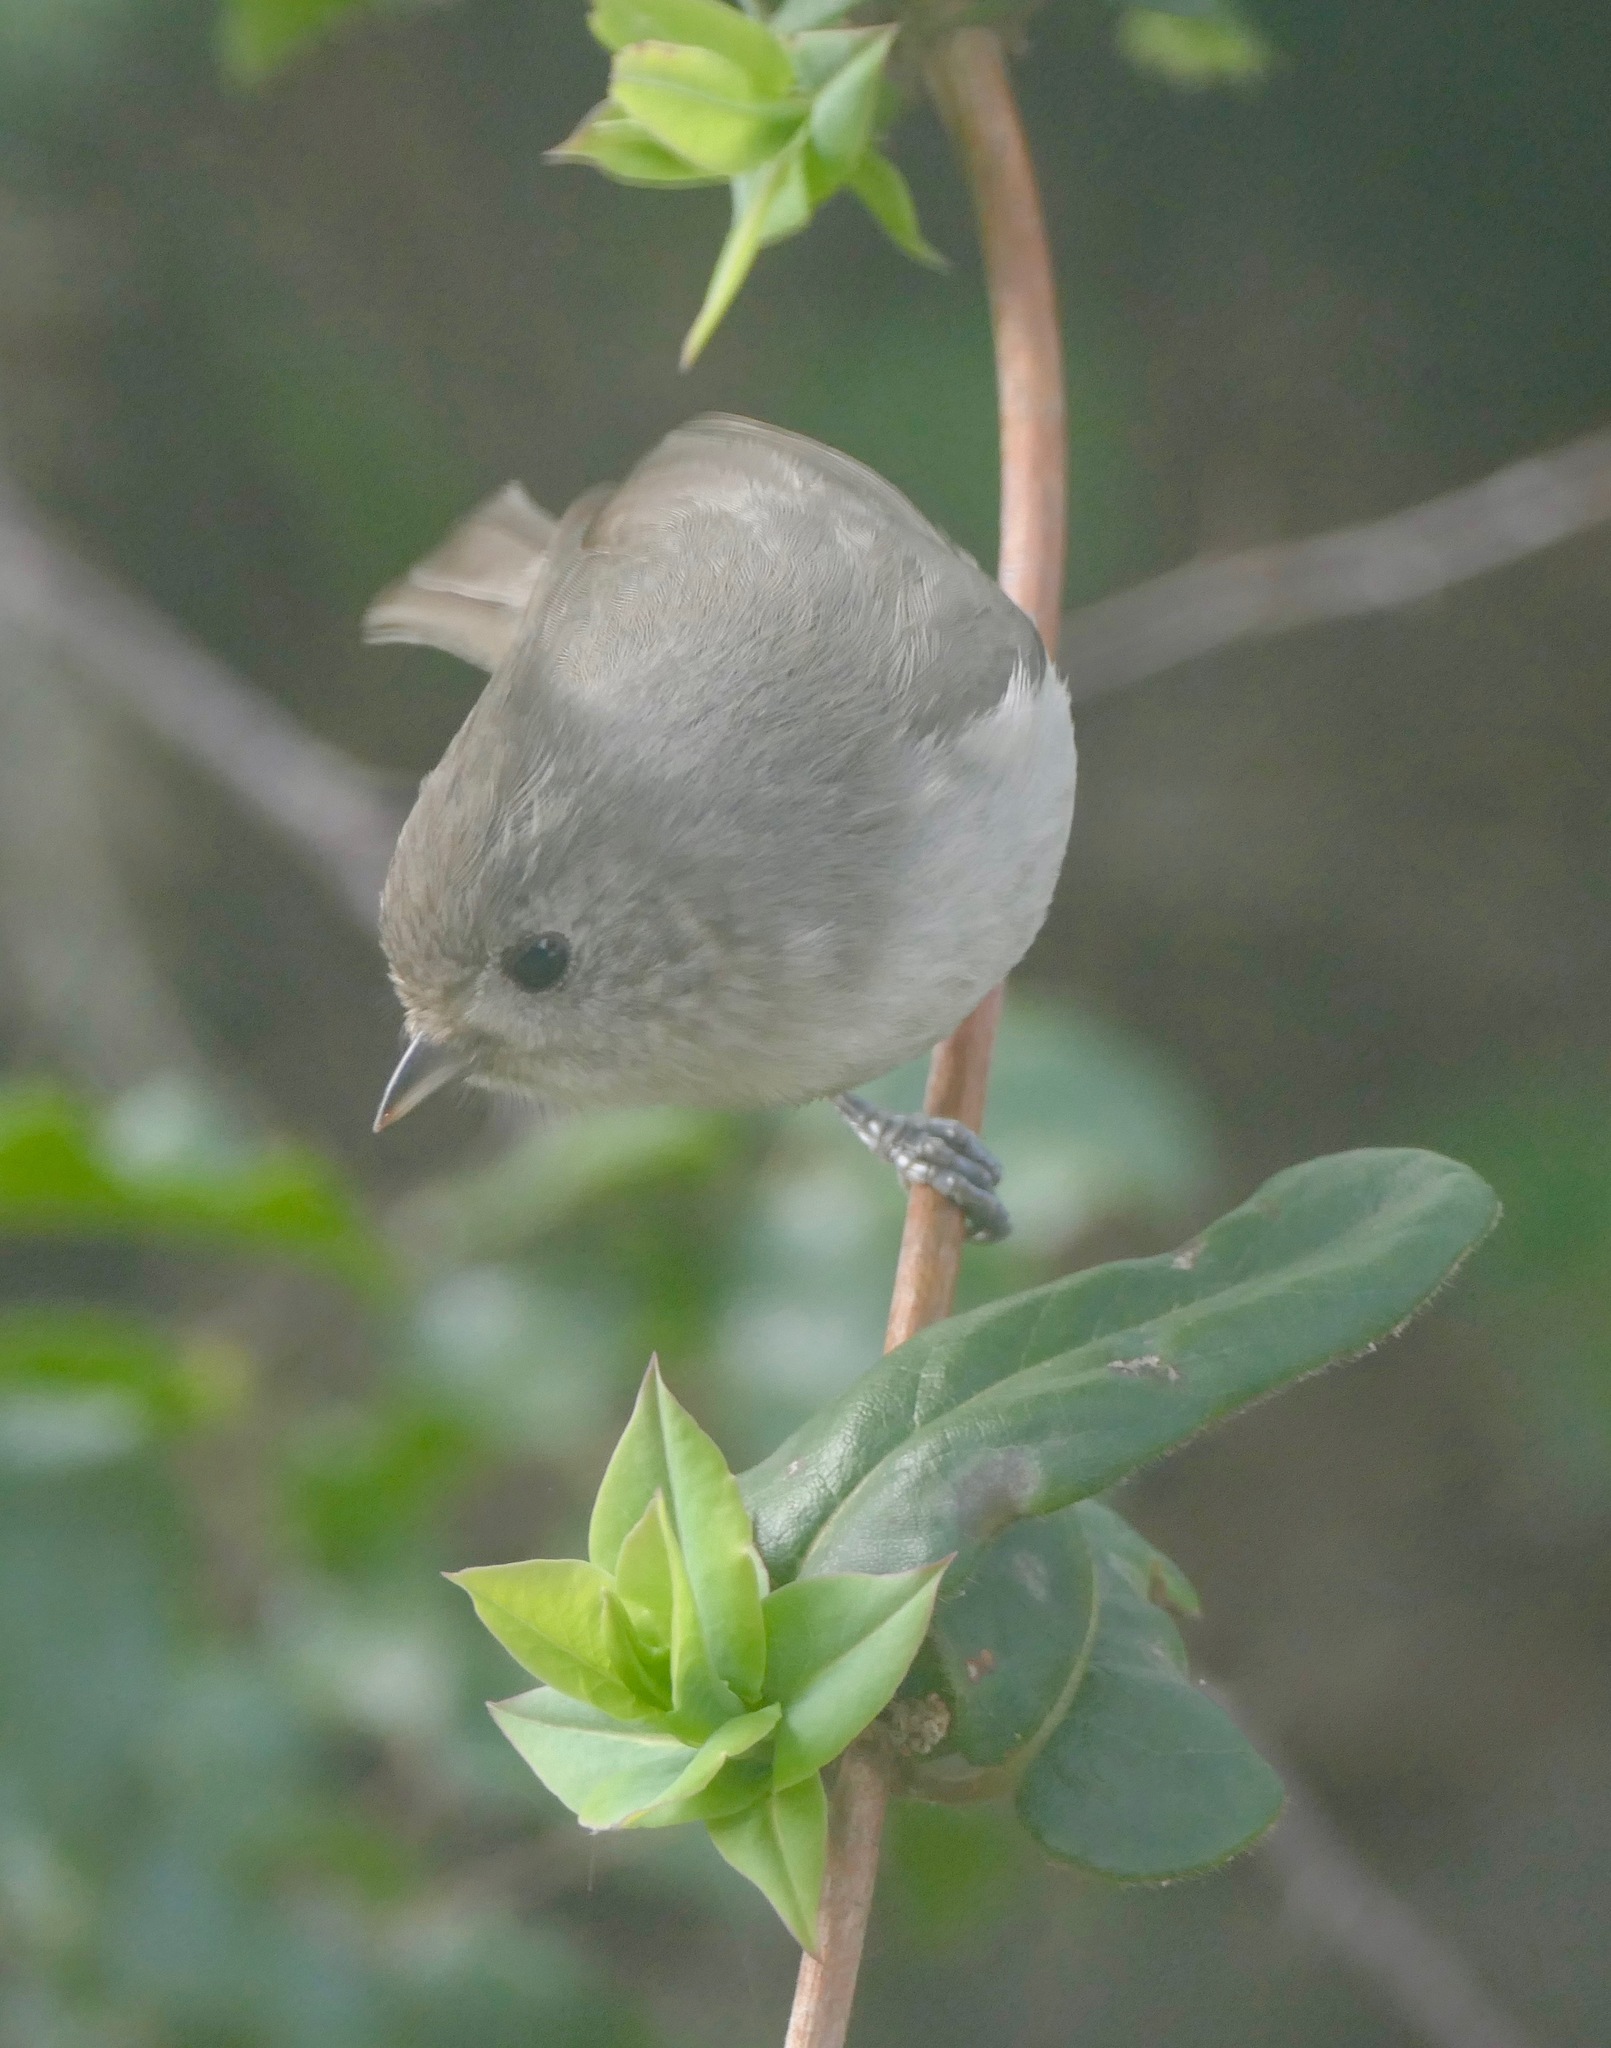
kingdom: Animalia
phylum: Chordata
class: Aves
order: Passeriformes
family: Paridae
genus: Baeolophus
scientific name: Baeolophus inornatus
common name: Oak titmouse
